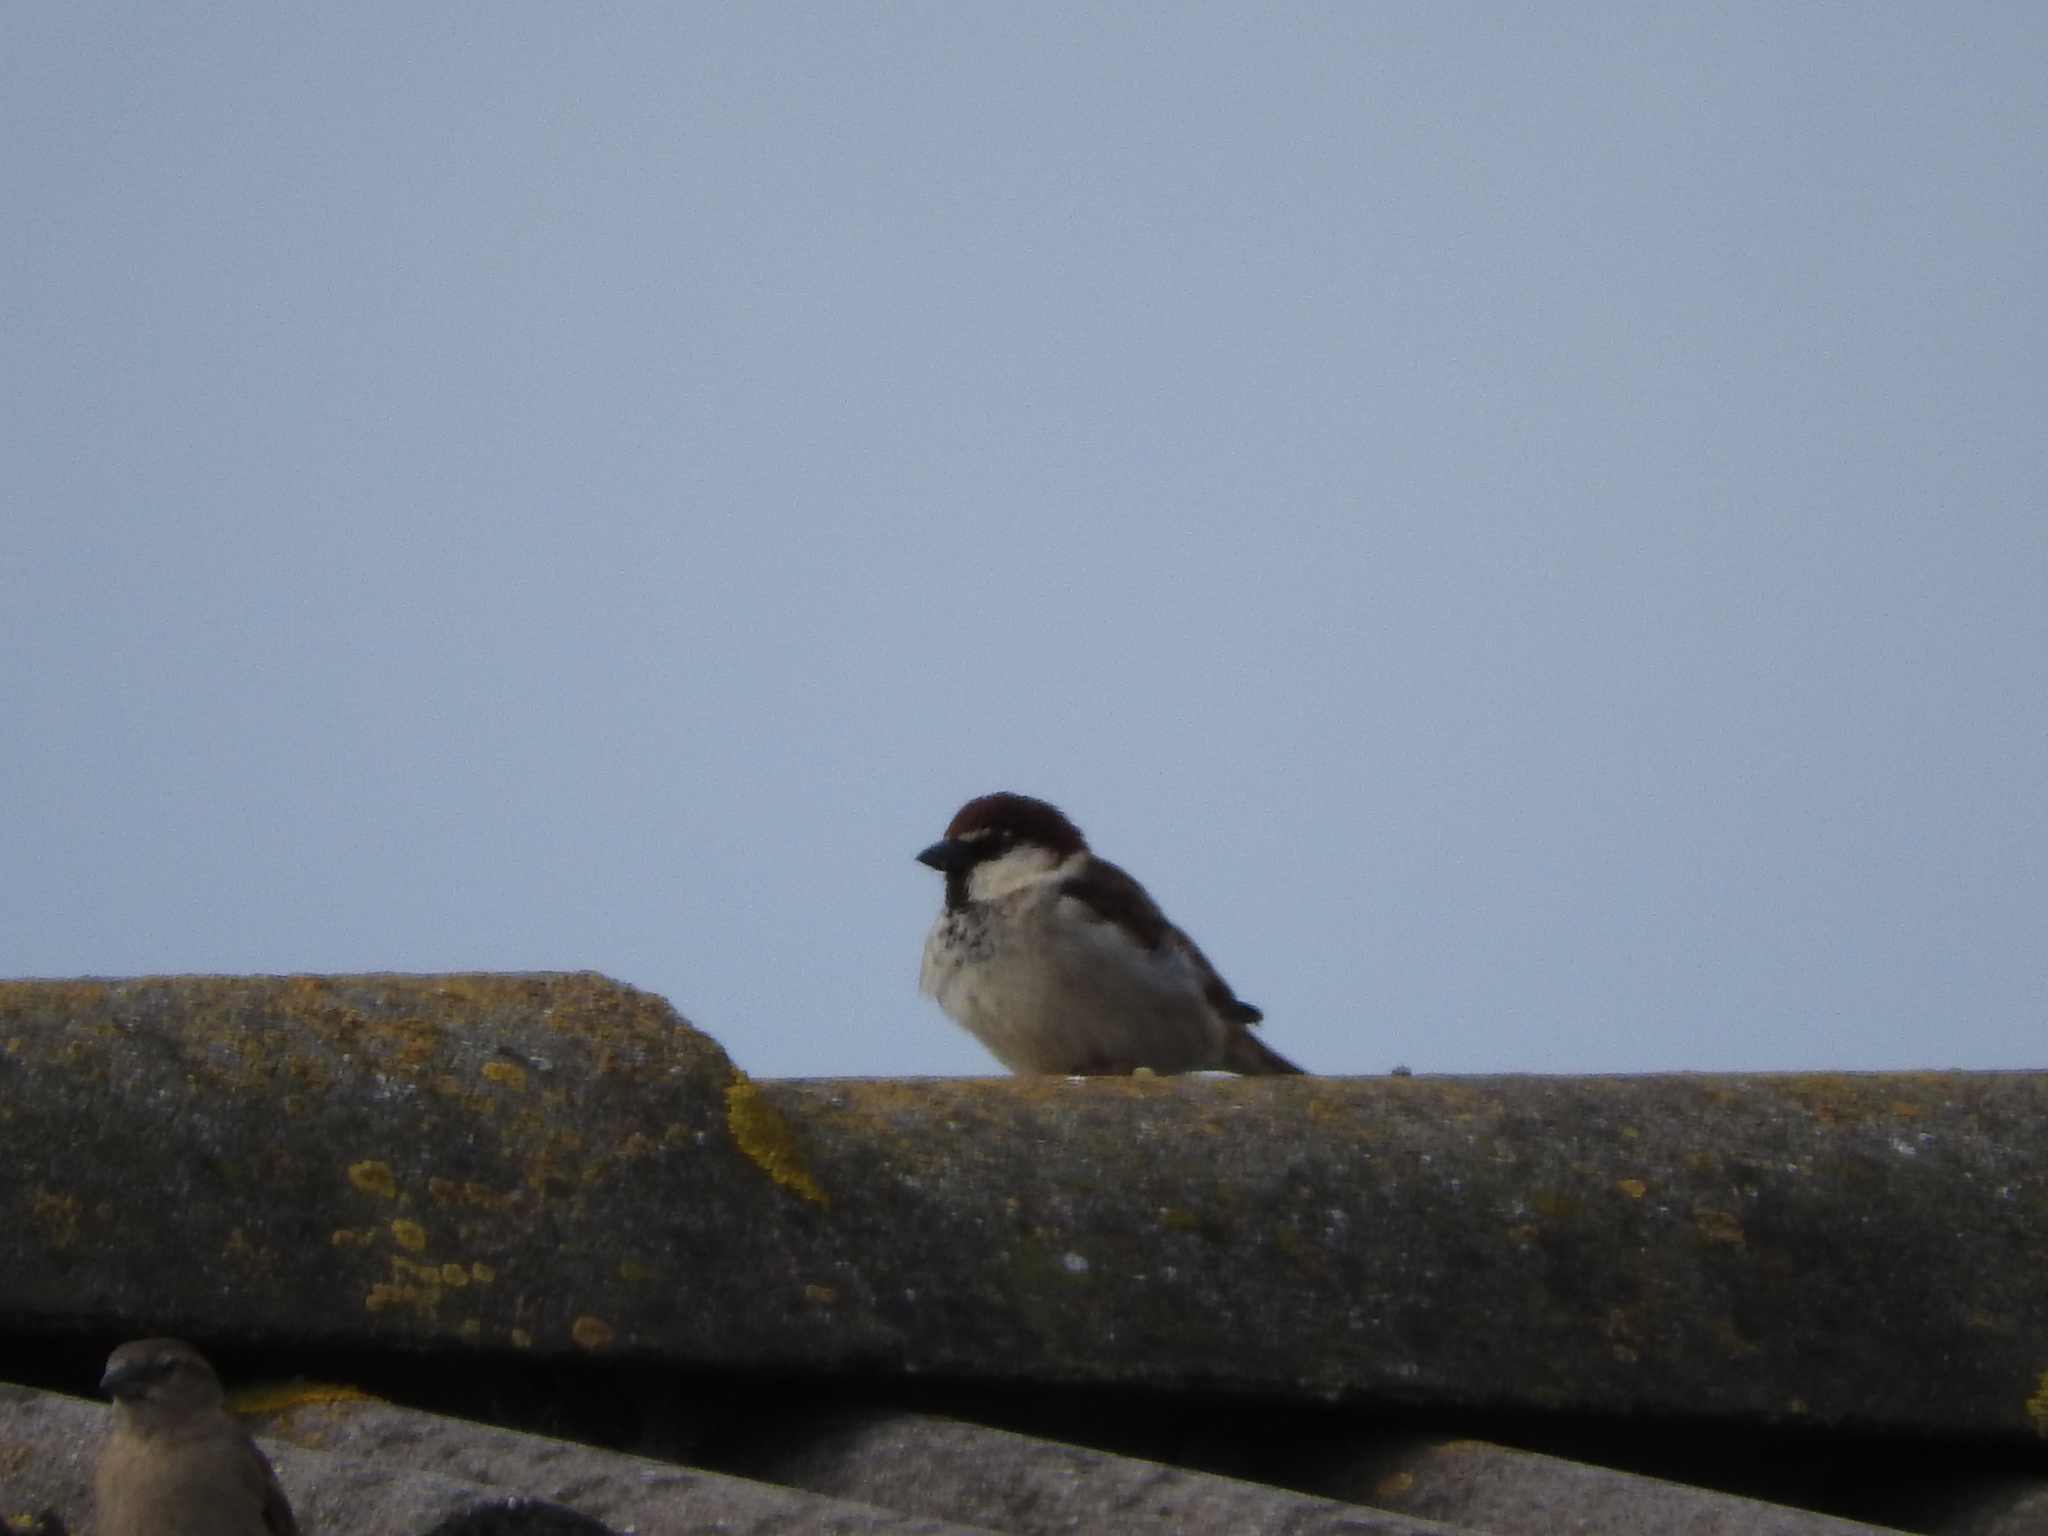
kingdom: Animalia
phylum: Chordata
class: Aves
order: Passeriformes
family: Passeridae
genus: Passer
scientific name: Passer italiae
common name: Italian sparrow
